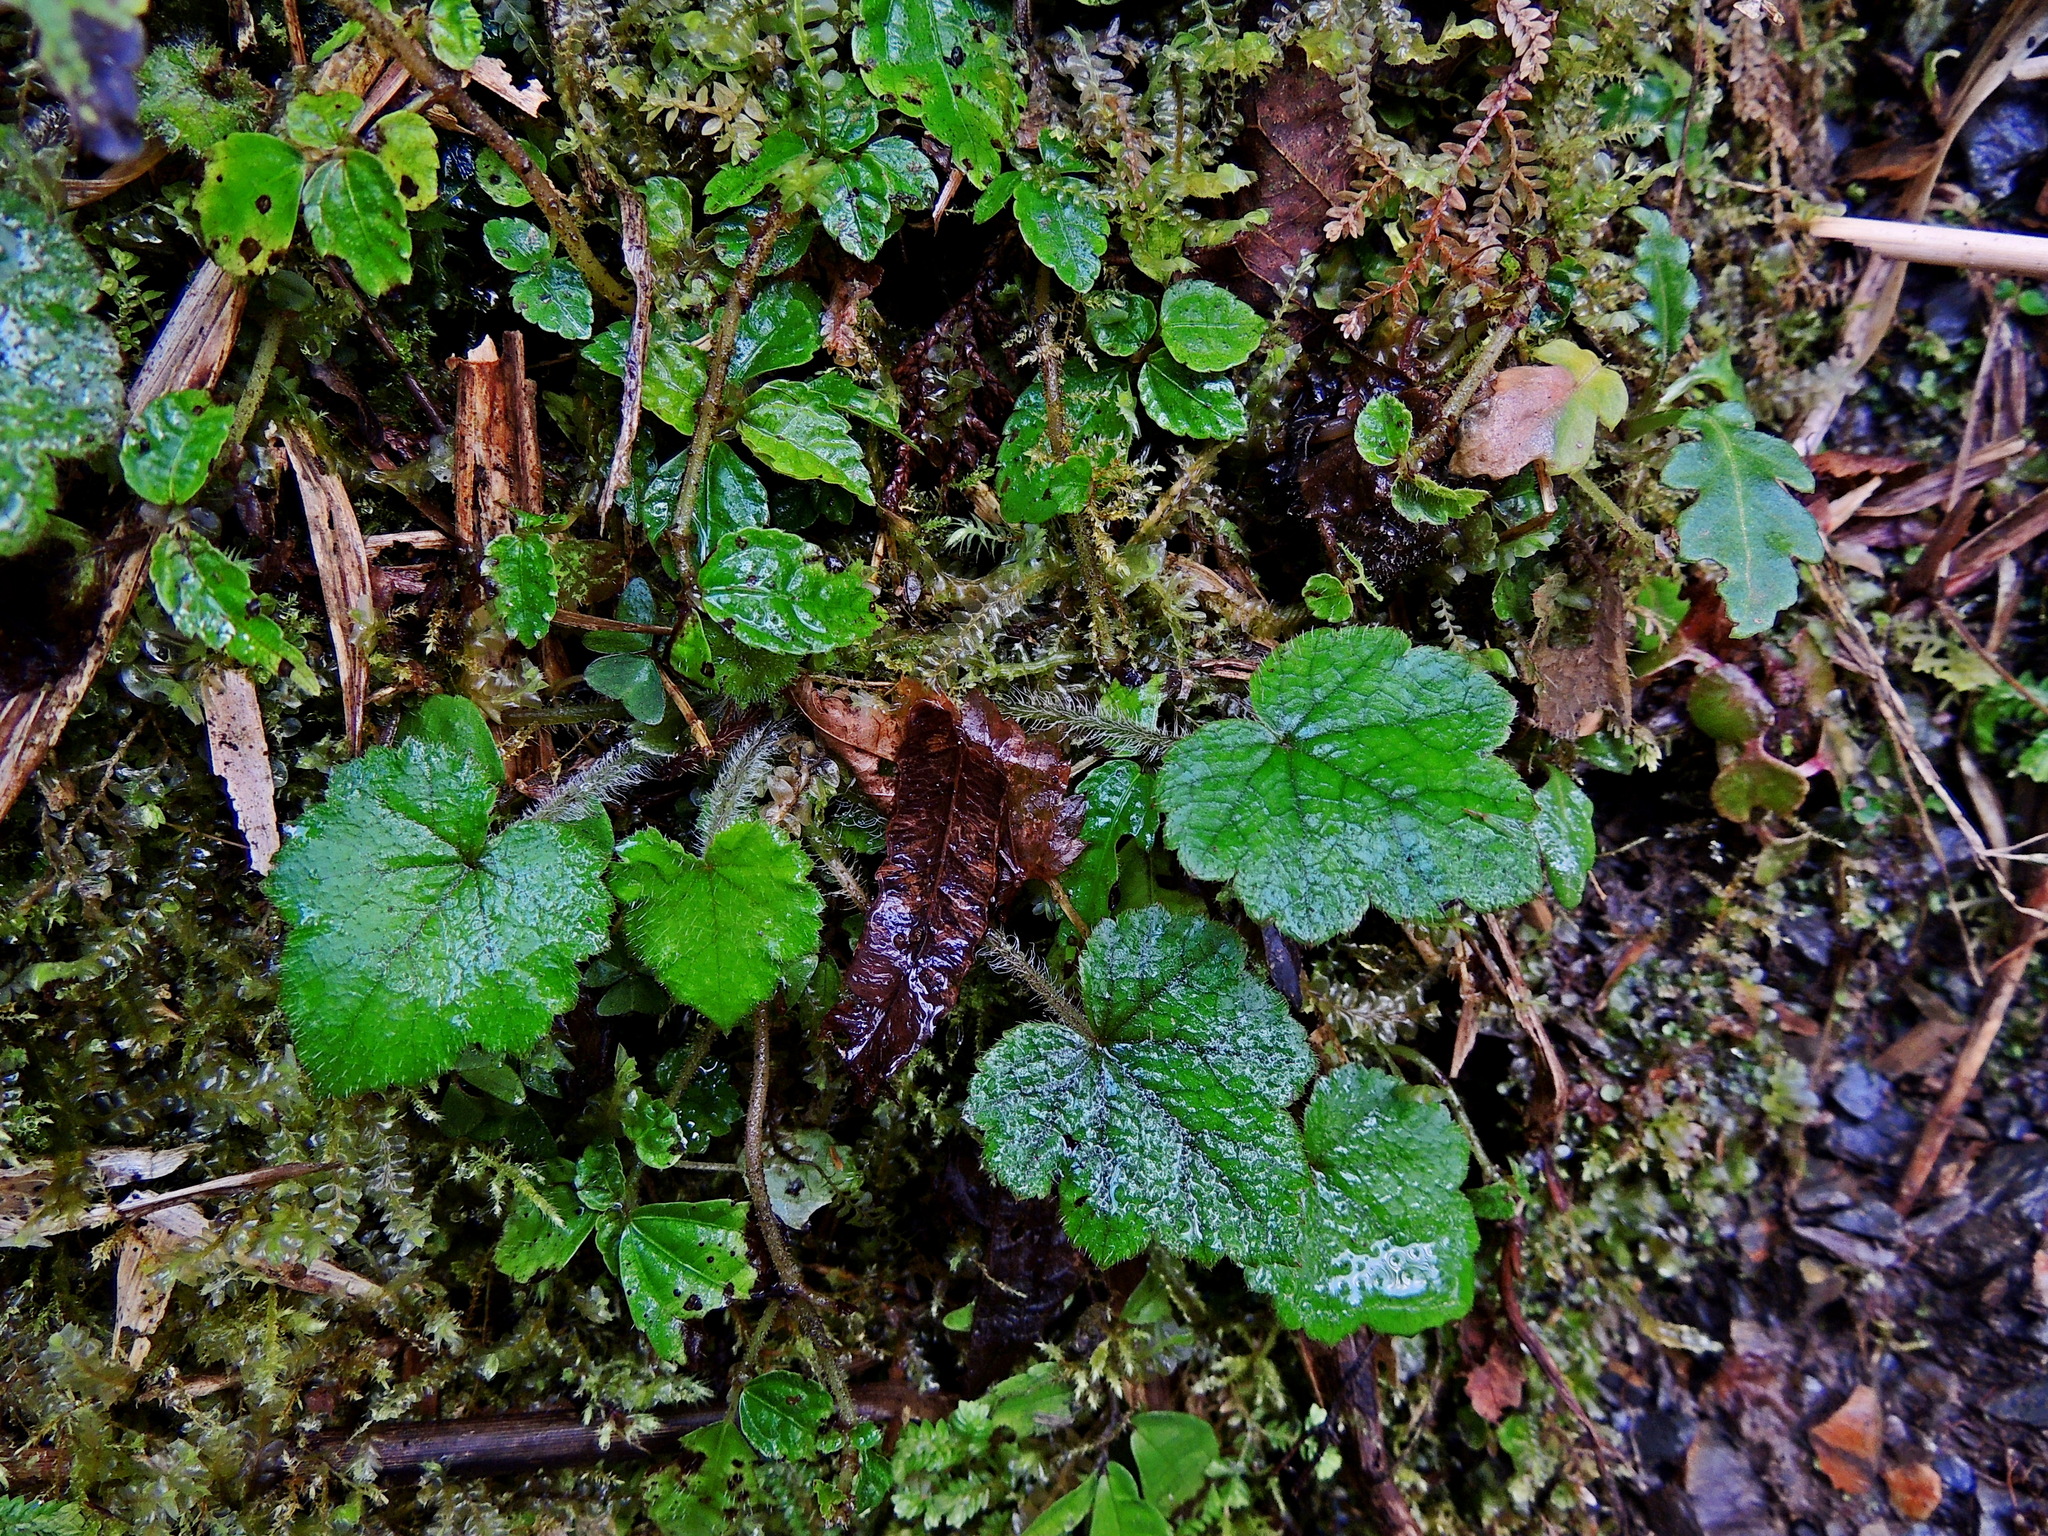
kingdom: Plantae
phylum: Tracheophyta
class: Magnoliopsida
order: Saxifragales
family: Saxifragaceae
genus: Asimitellaria
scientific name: Asimitellaria formosana
